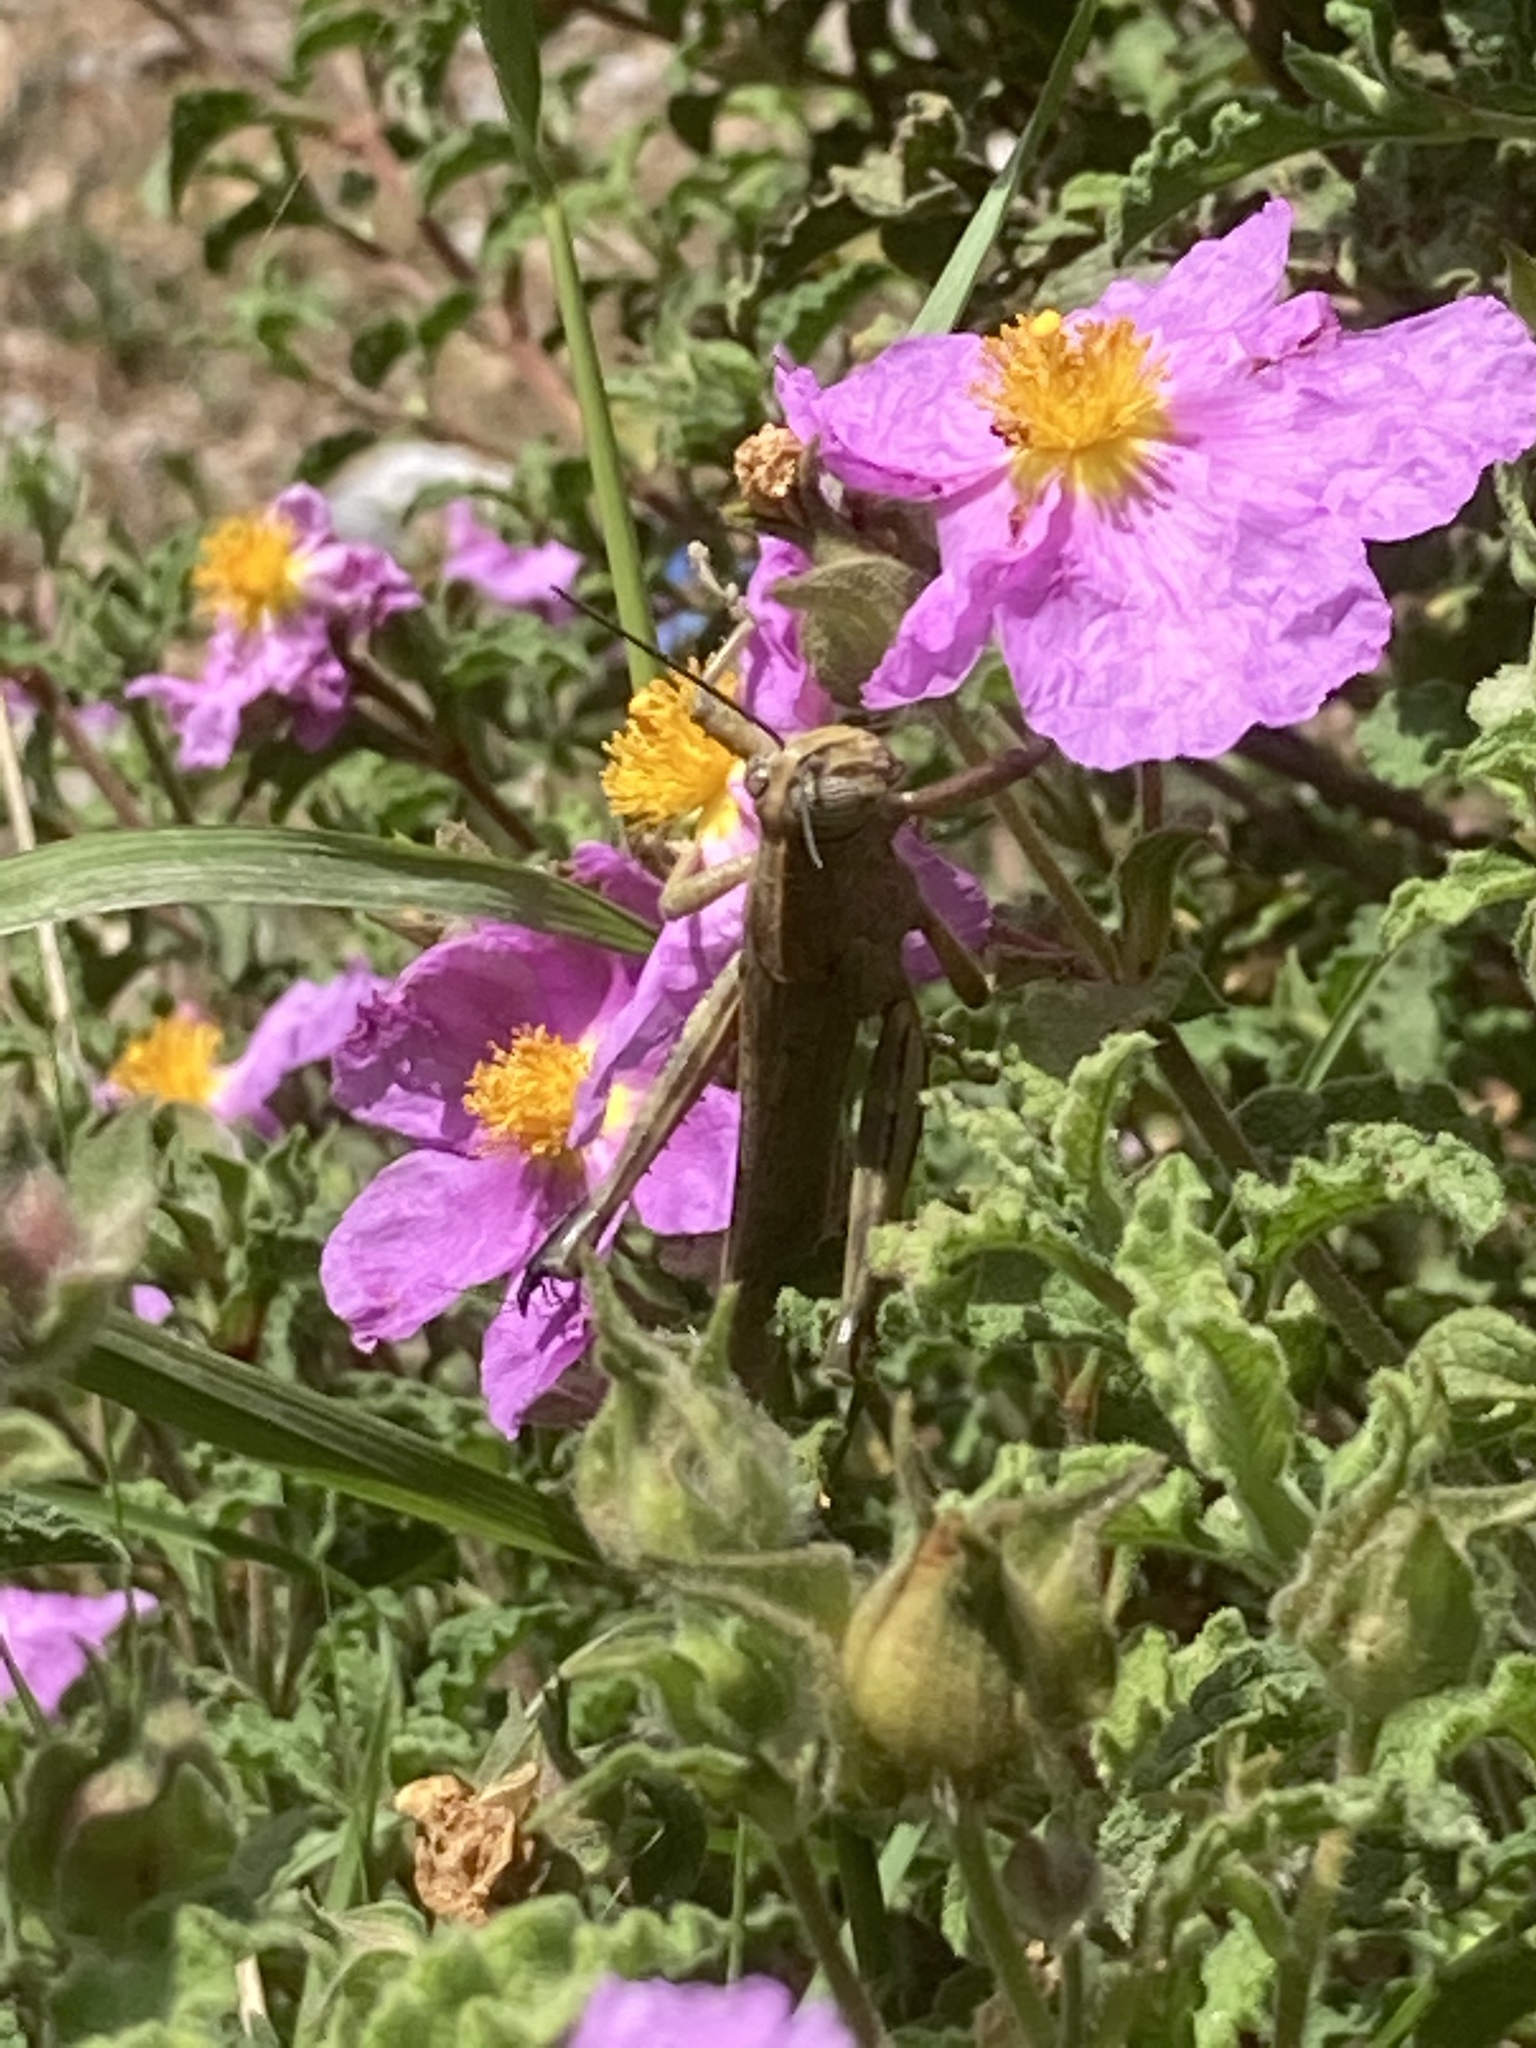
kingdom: Animalia
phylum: Arthropoda
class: Insecta
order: Orthoptera
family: Acrididae
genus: Anacridium
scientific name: Anacridium aegyptium
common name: Egyptian grasshopper
